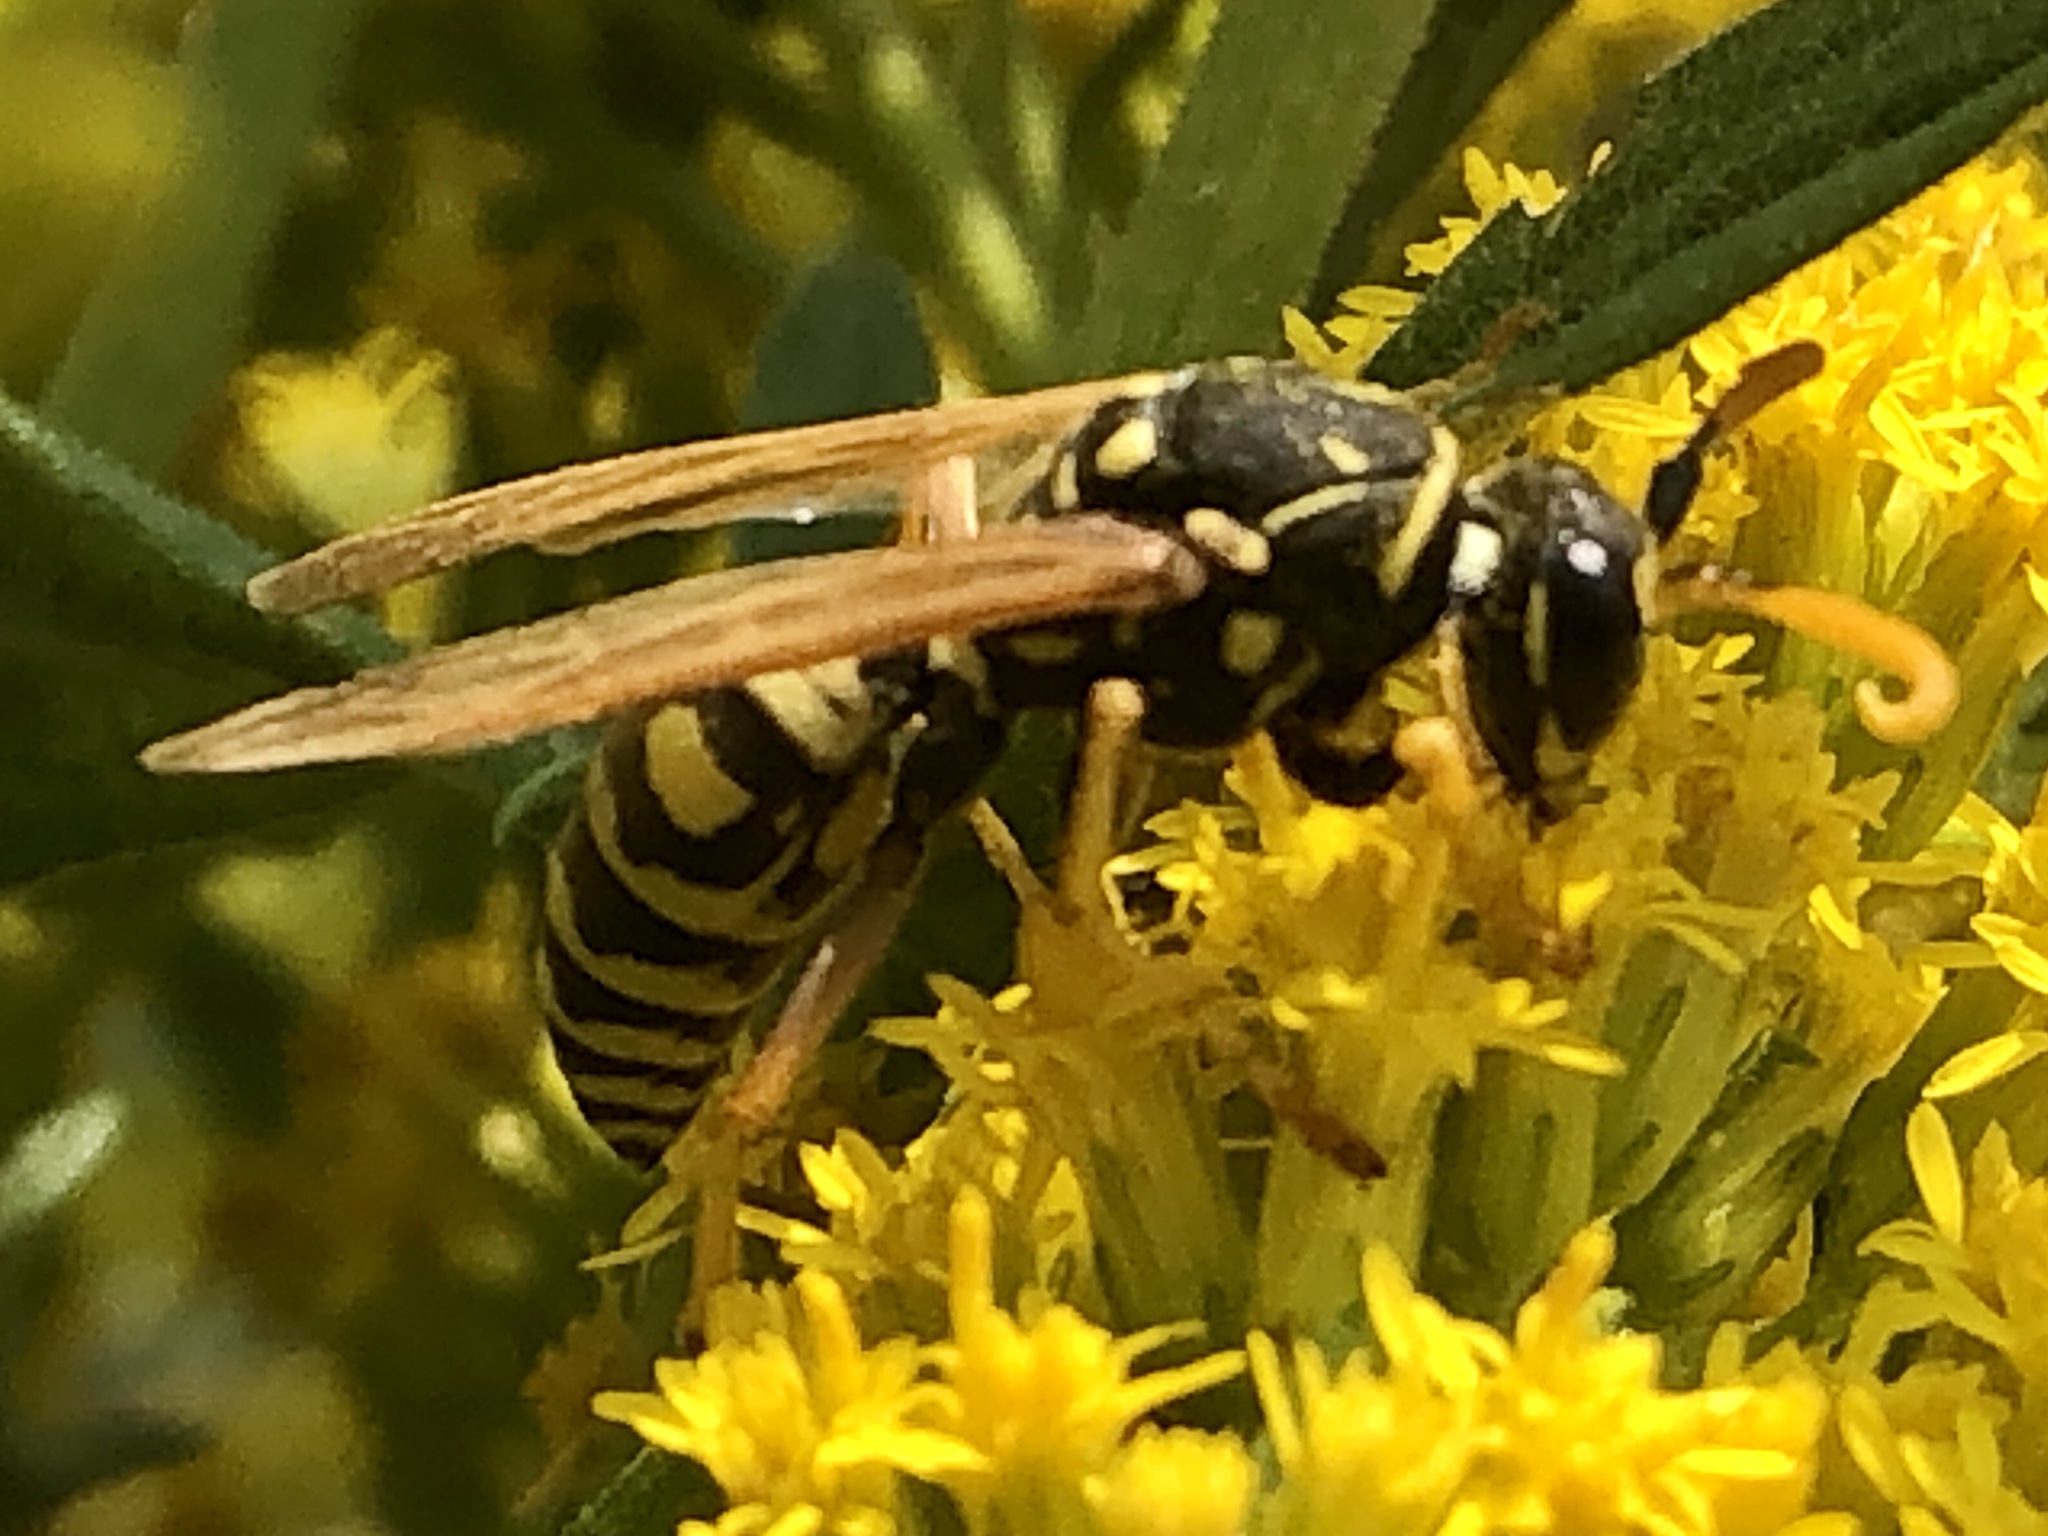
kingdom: Animalia
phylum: Arthropoda
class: Insecta
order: Hymenoptera
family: Eumenidae
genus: Polistes
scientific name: Polistes dominula
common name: Paper wasp
